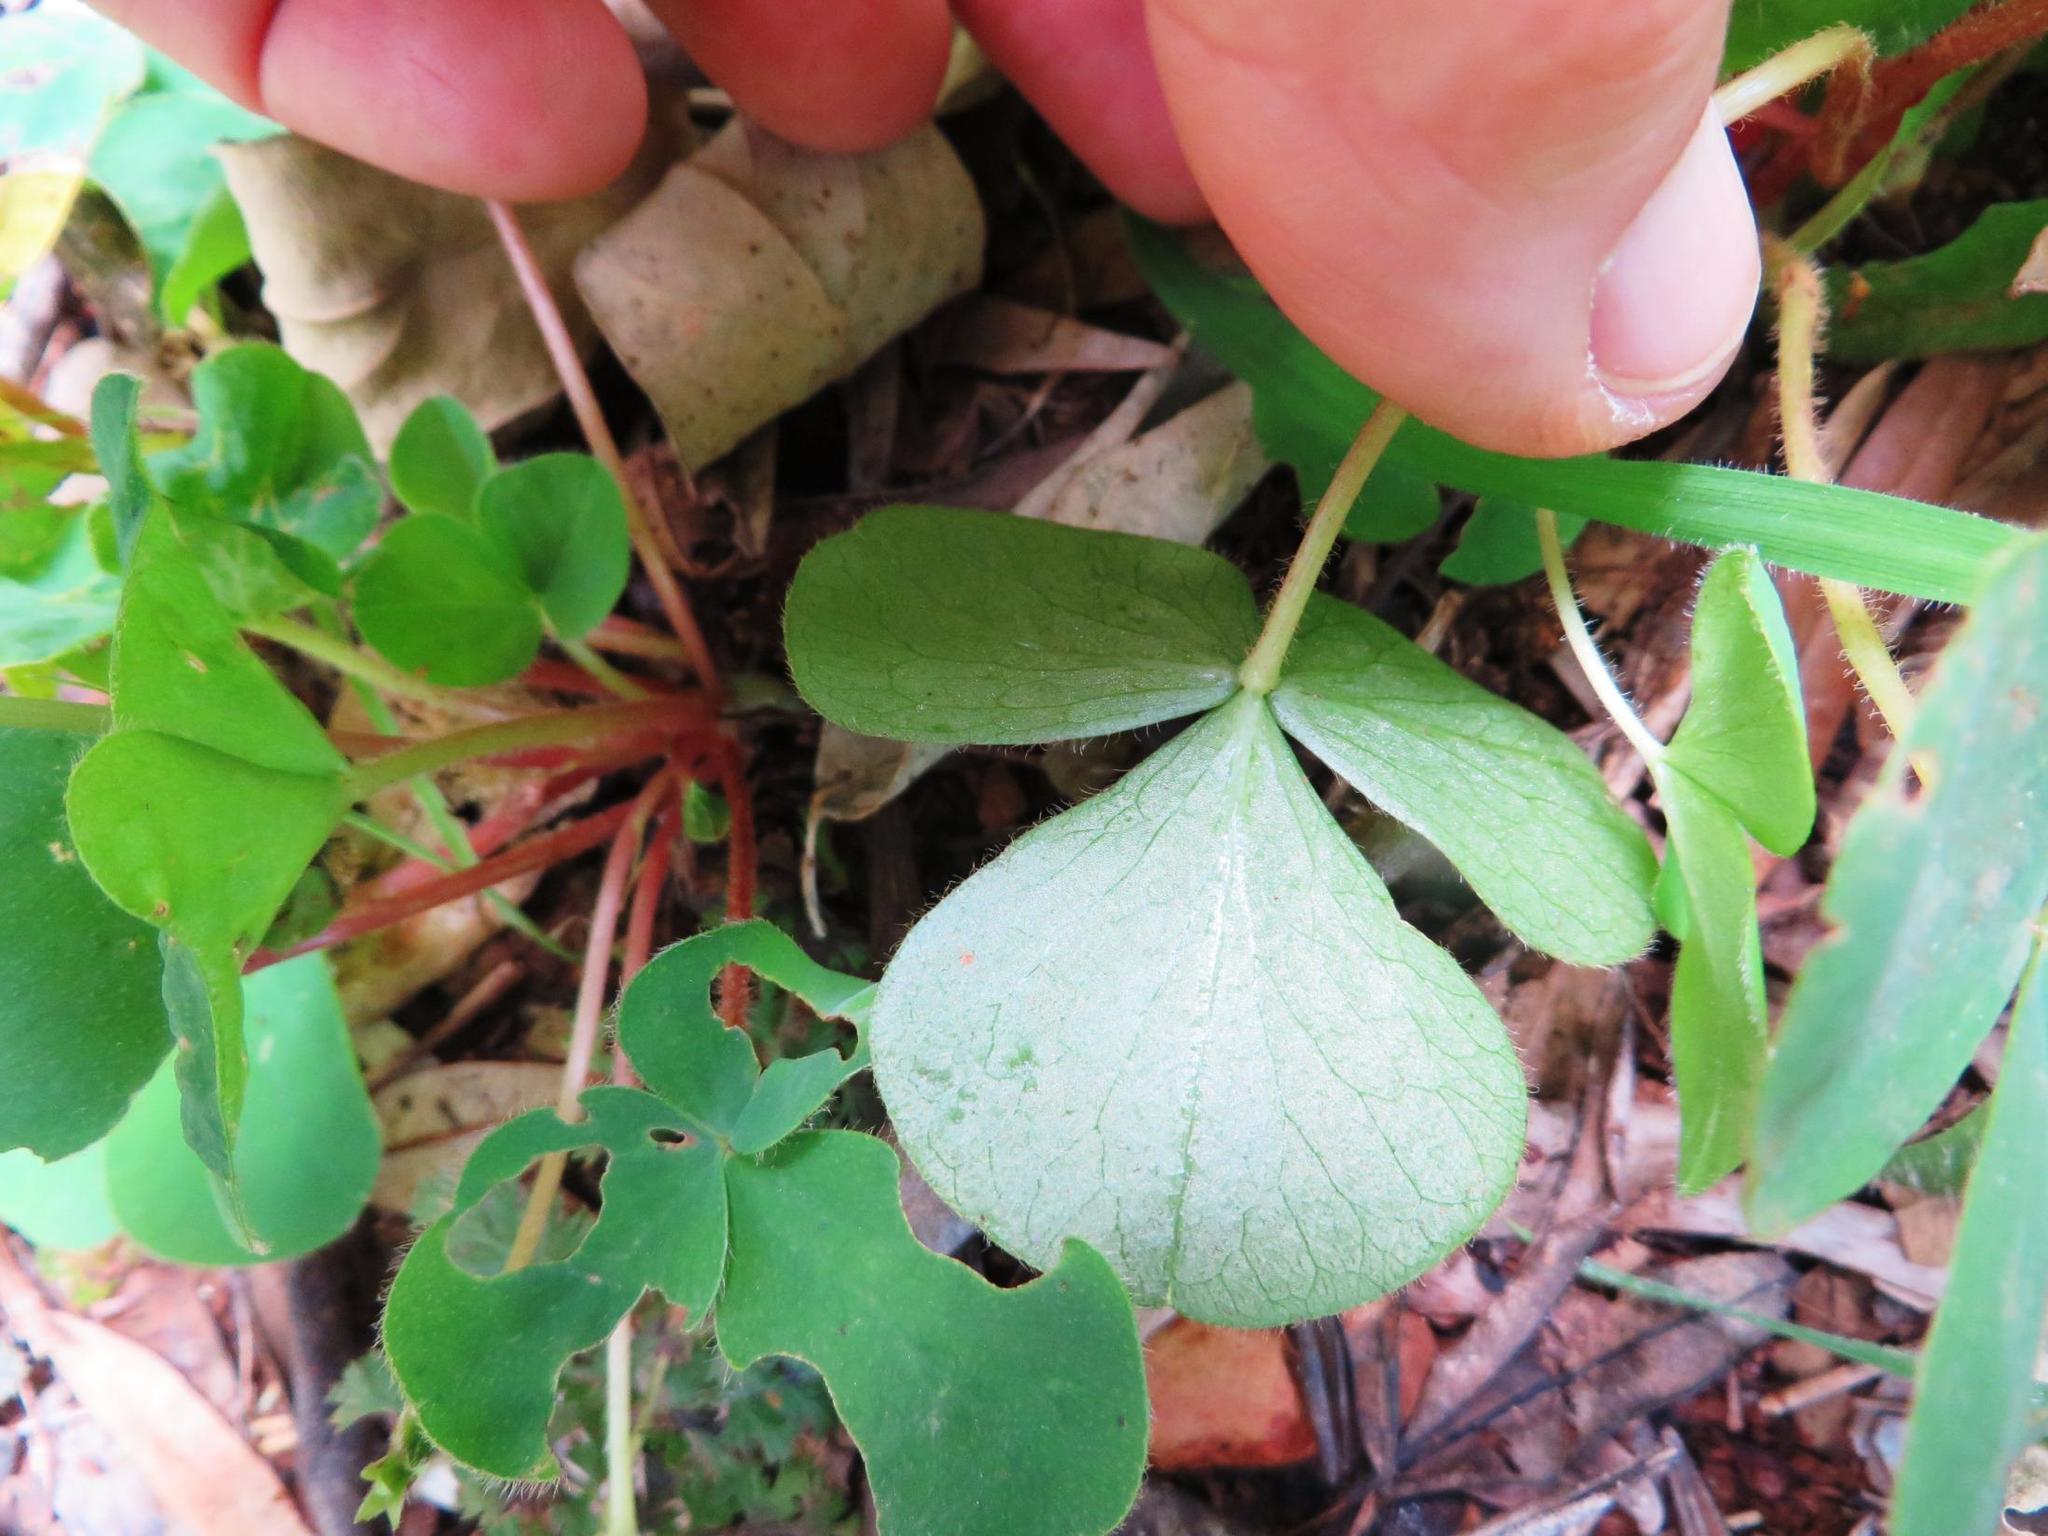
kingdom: Plantae
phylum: Tracheophyta
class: Magnoliopsida
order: Oxalidales
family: Oxalidaceae
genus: Oxalis
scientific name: Oxalis purpurea
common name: Purple woodsorrel
